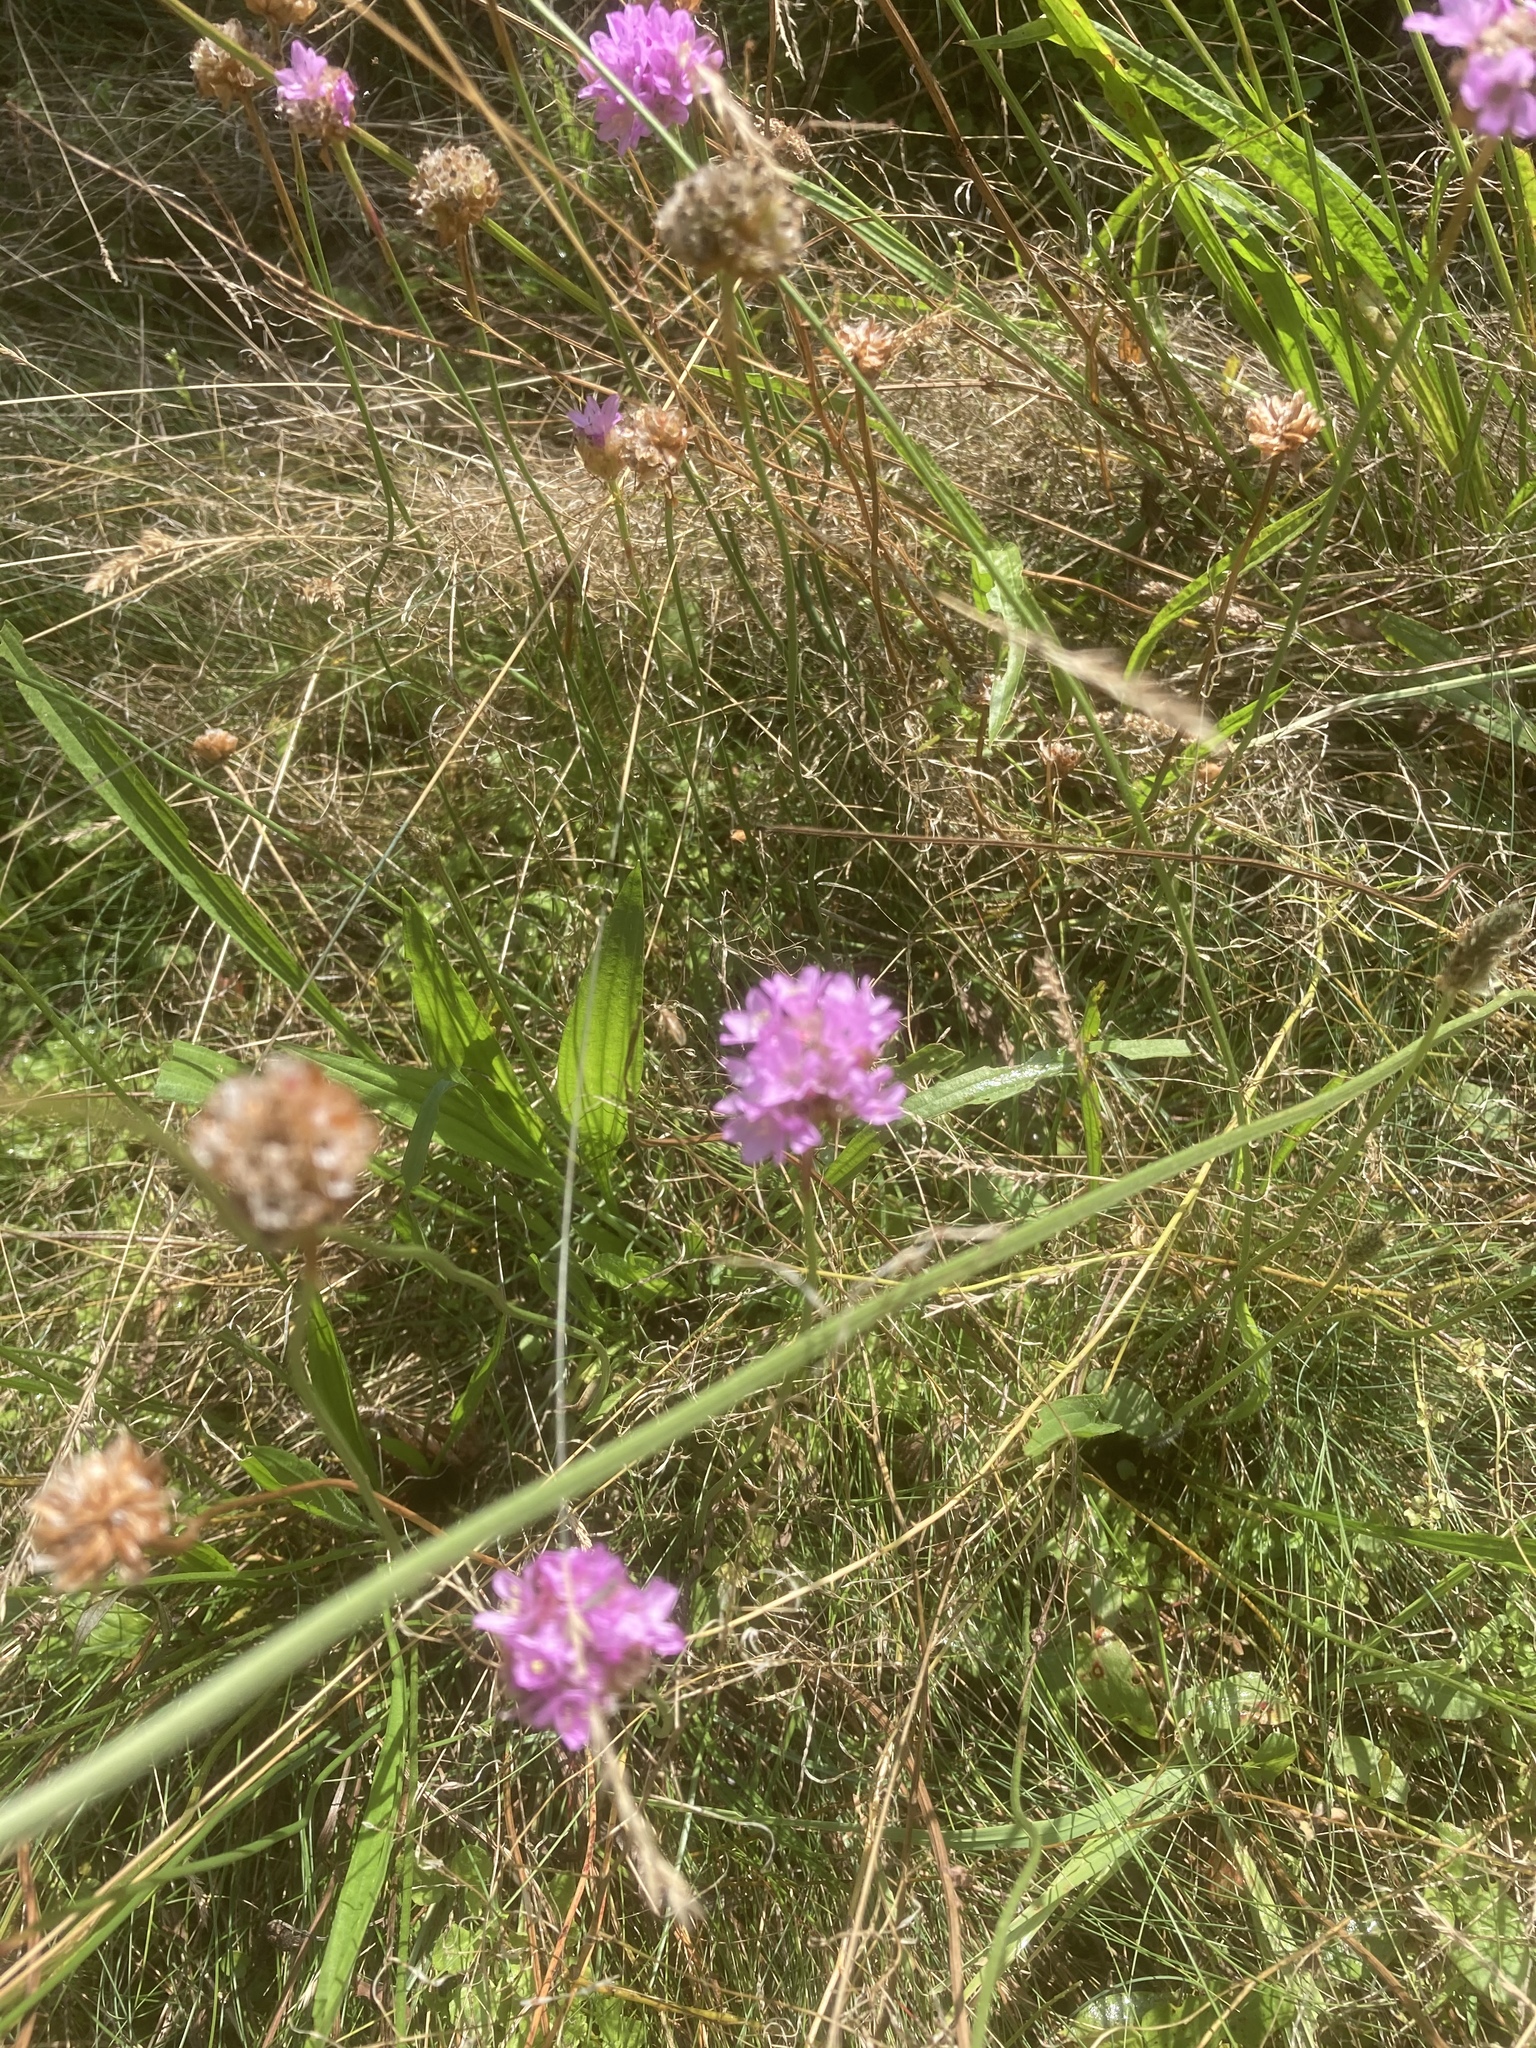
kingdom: Plantae
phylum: Tracheophyta
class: Magnoliopsida
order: Caryophyllales
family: Plumbaginaceae
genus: Armeria
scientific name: Armeria maritima
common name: Thrift
